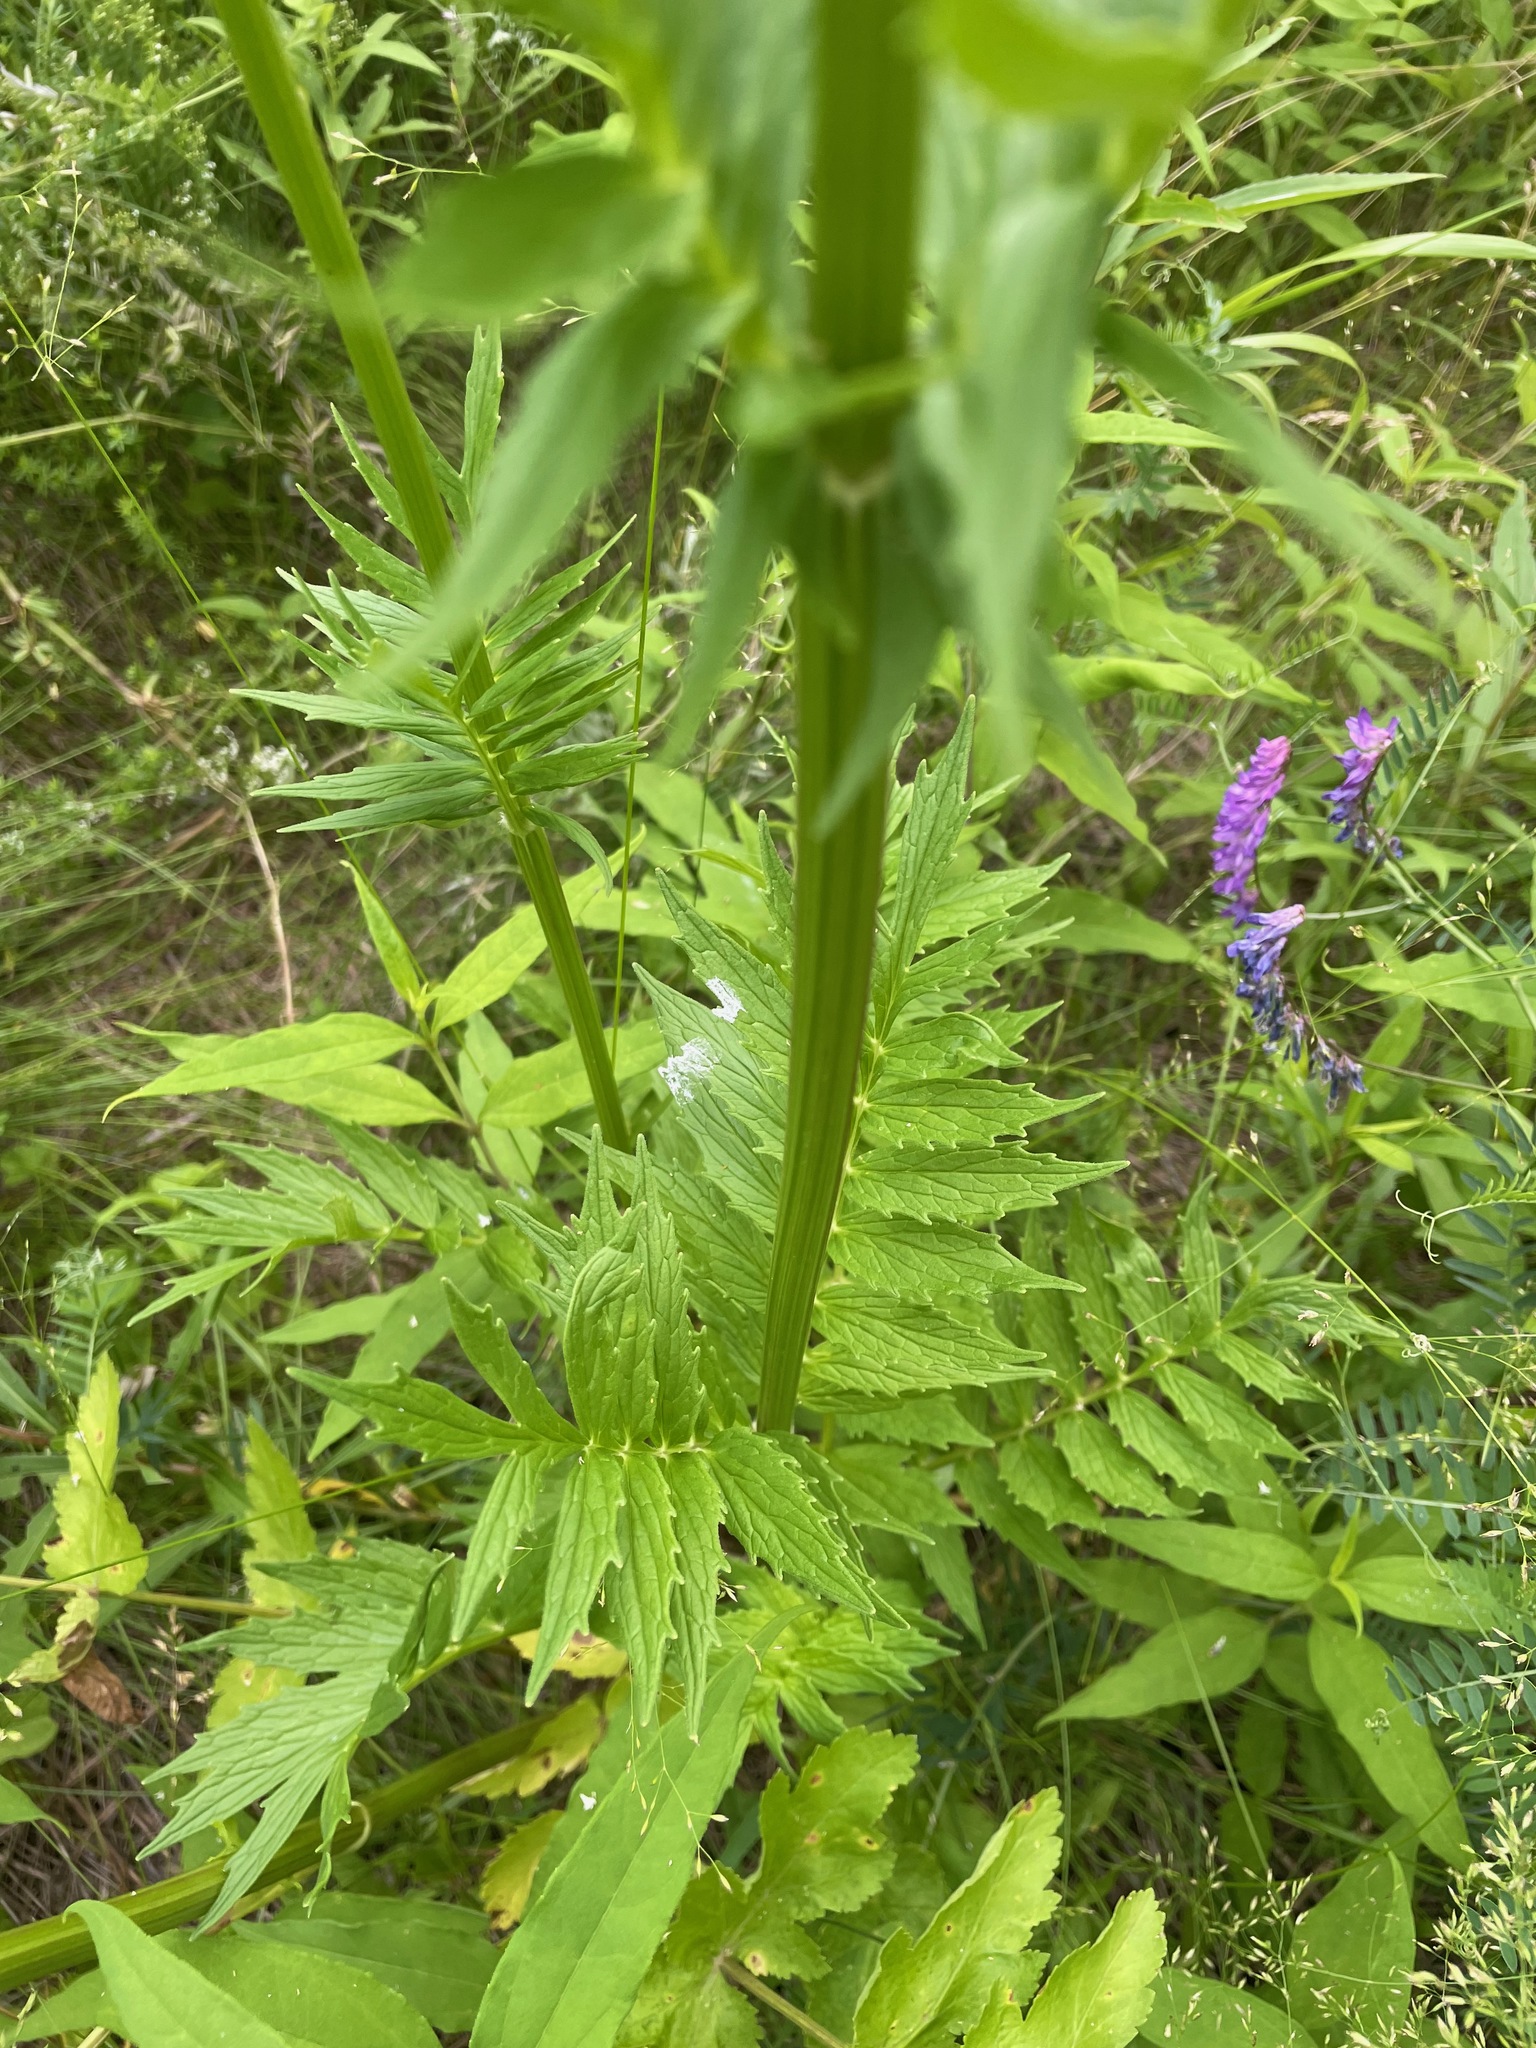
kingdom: Plantae
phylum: Tracheophyta
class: Magnoliopsida
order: Dipsacales
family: Caprifoliaceae
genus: Valeriana
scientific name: Valeriana officinalis
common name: Common valerian
